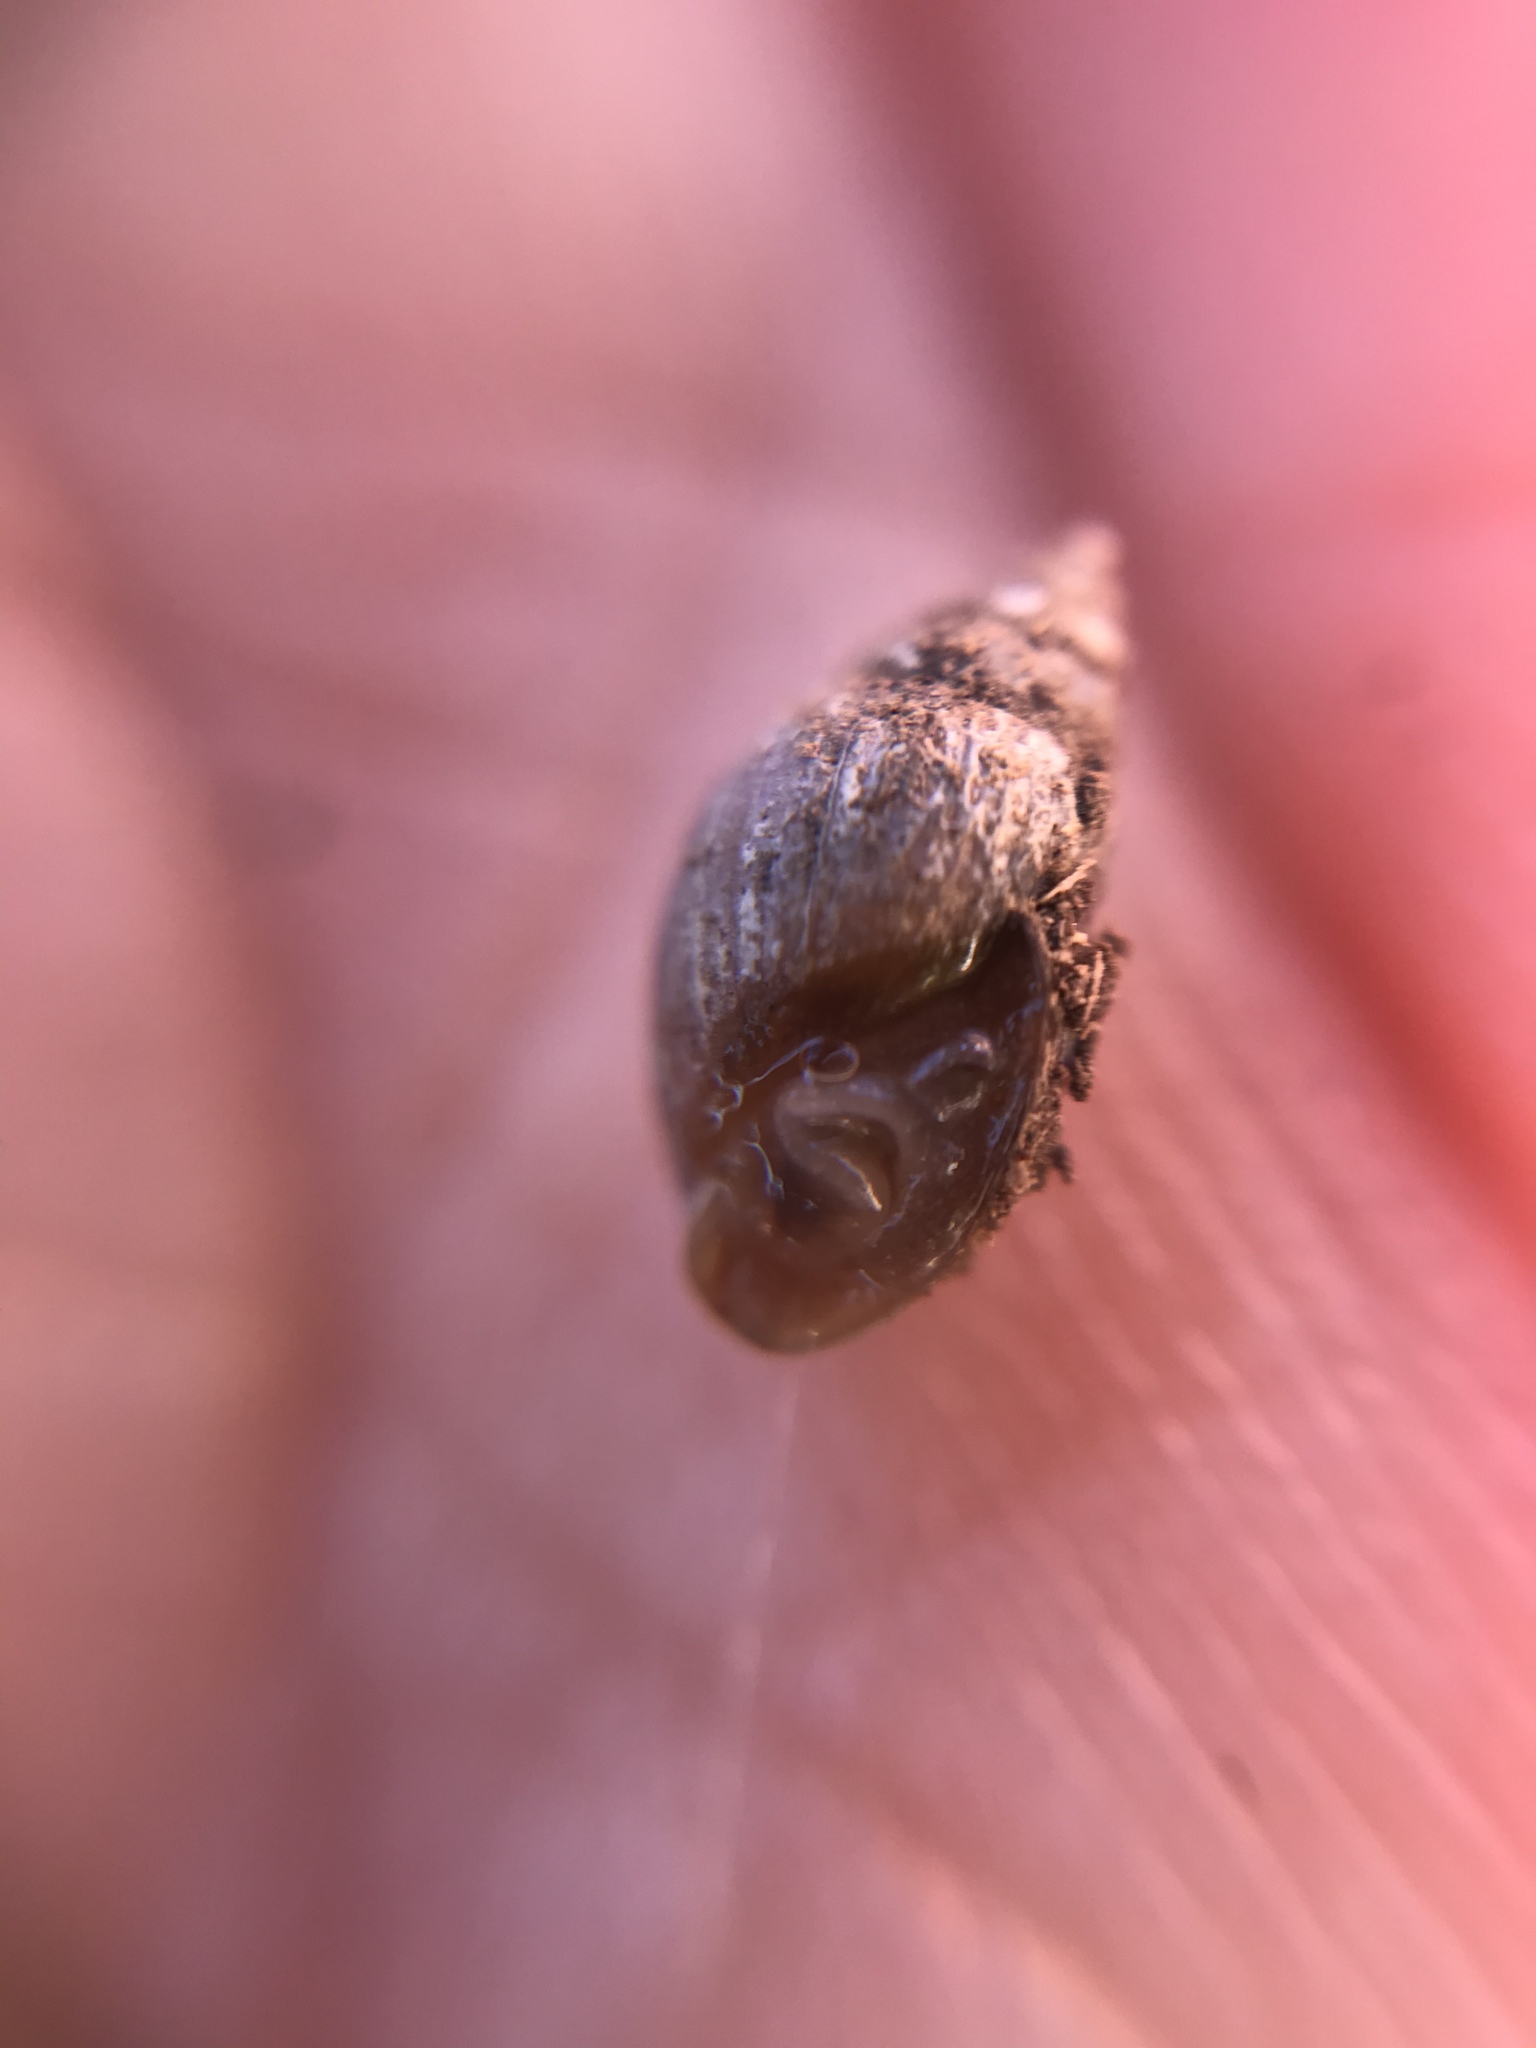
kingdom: Animalia
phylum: Mollusca
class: Gastropoda
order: Ellobiida
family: Ellobiidae
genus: Myosotella
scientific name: Myosotella myosotis
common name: Mouse-eared snail
